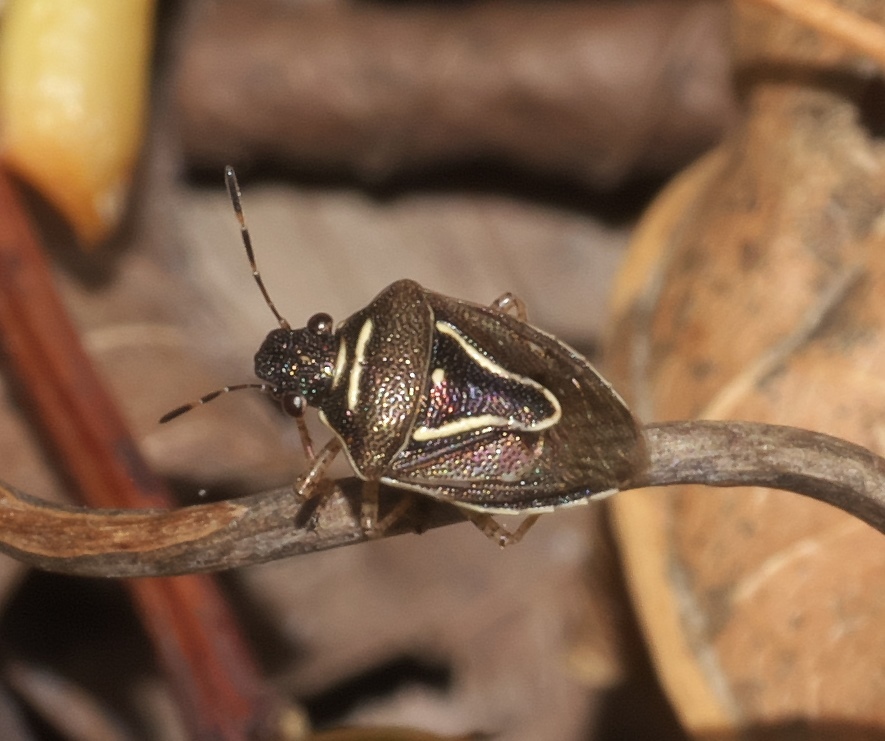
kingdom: Animalia
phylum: Arthropoda
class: Insecta
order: Hemiptera
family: Pentatomidae
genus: Mormidea
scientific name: Mormidea lugens
